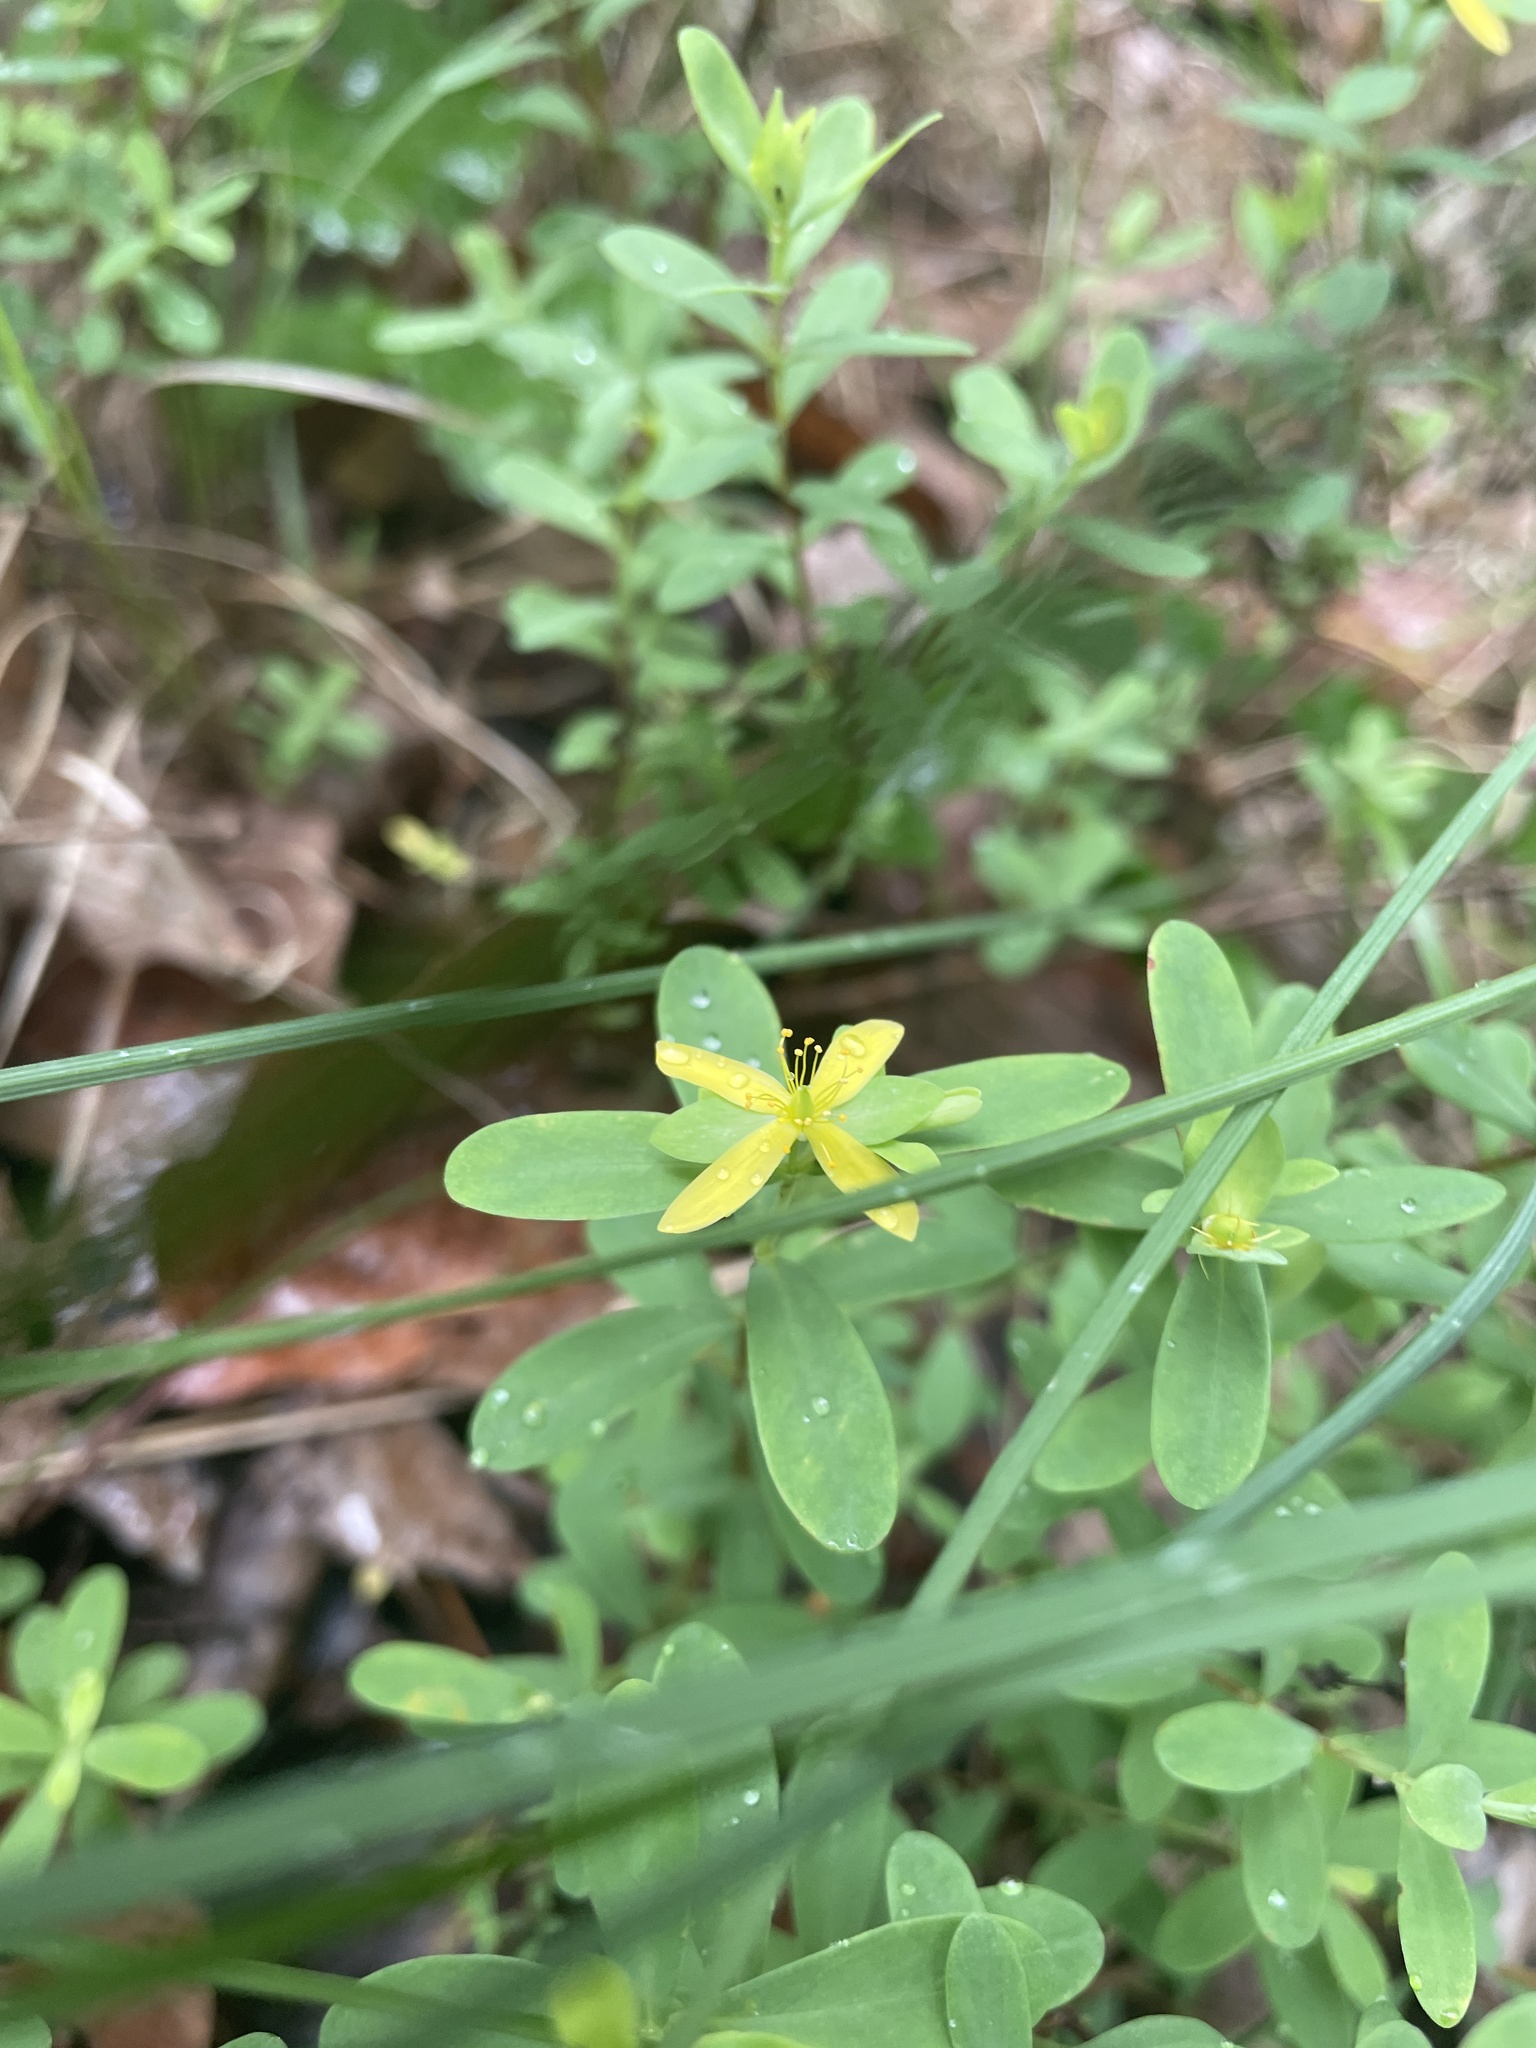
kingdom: Plantae
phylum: Tracheophyta
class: Magnoliopsida
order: Malpighiales
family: Hypericaceae
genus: Hypericum
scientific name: Hypericum hypericoides
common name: St. andrew's cross
